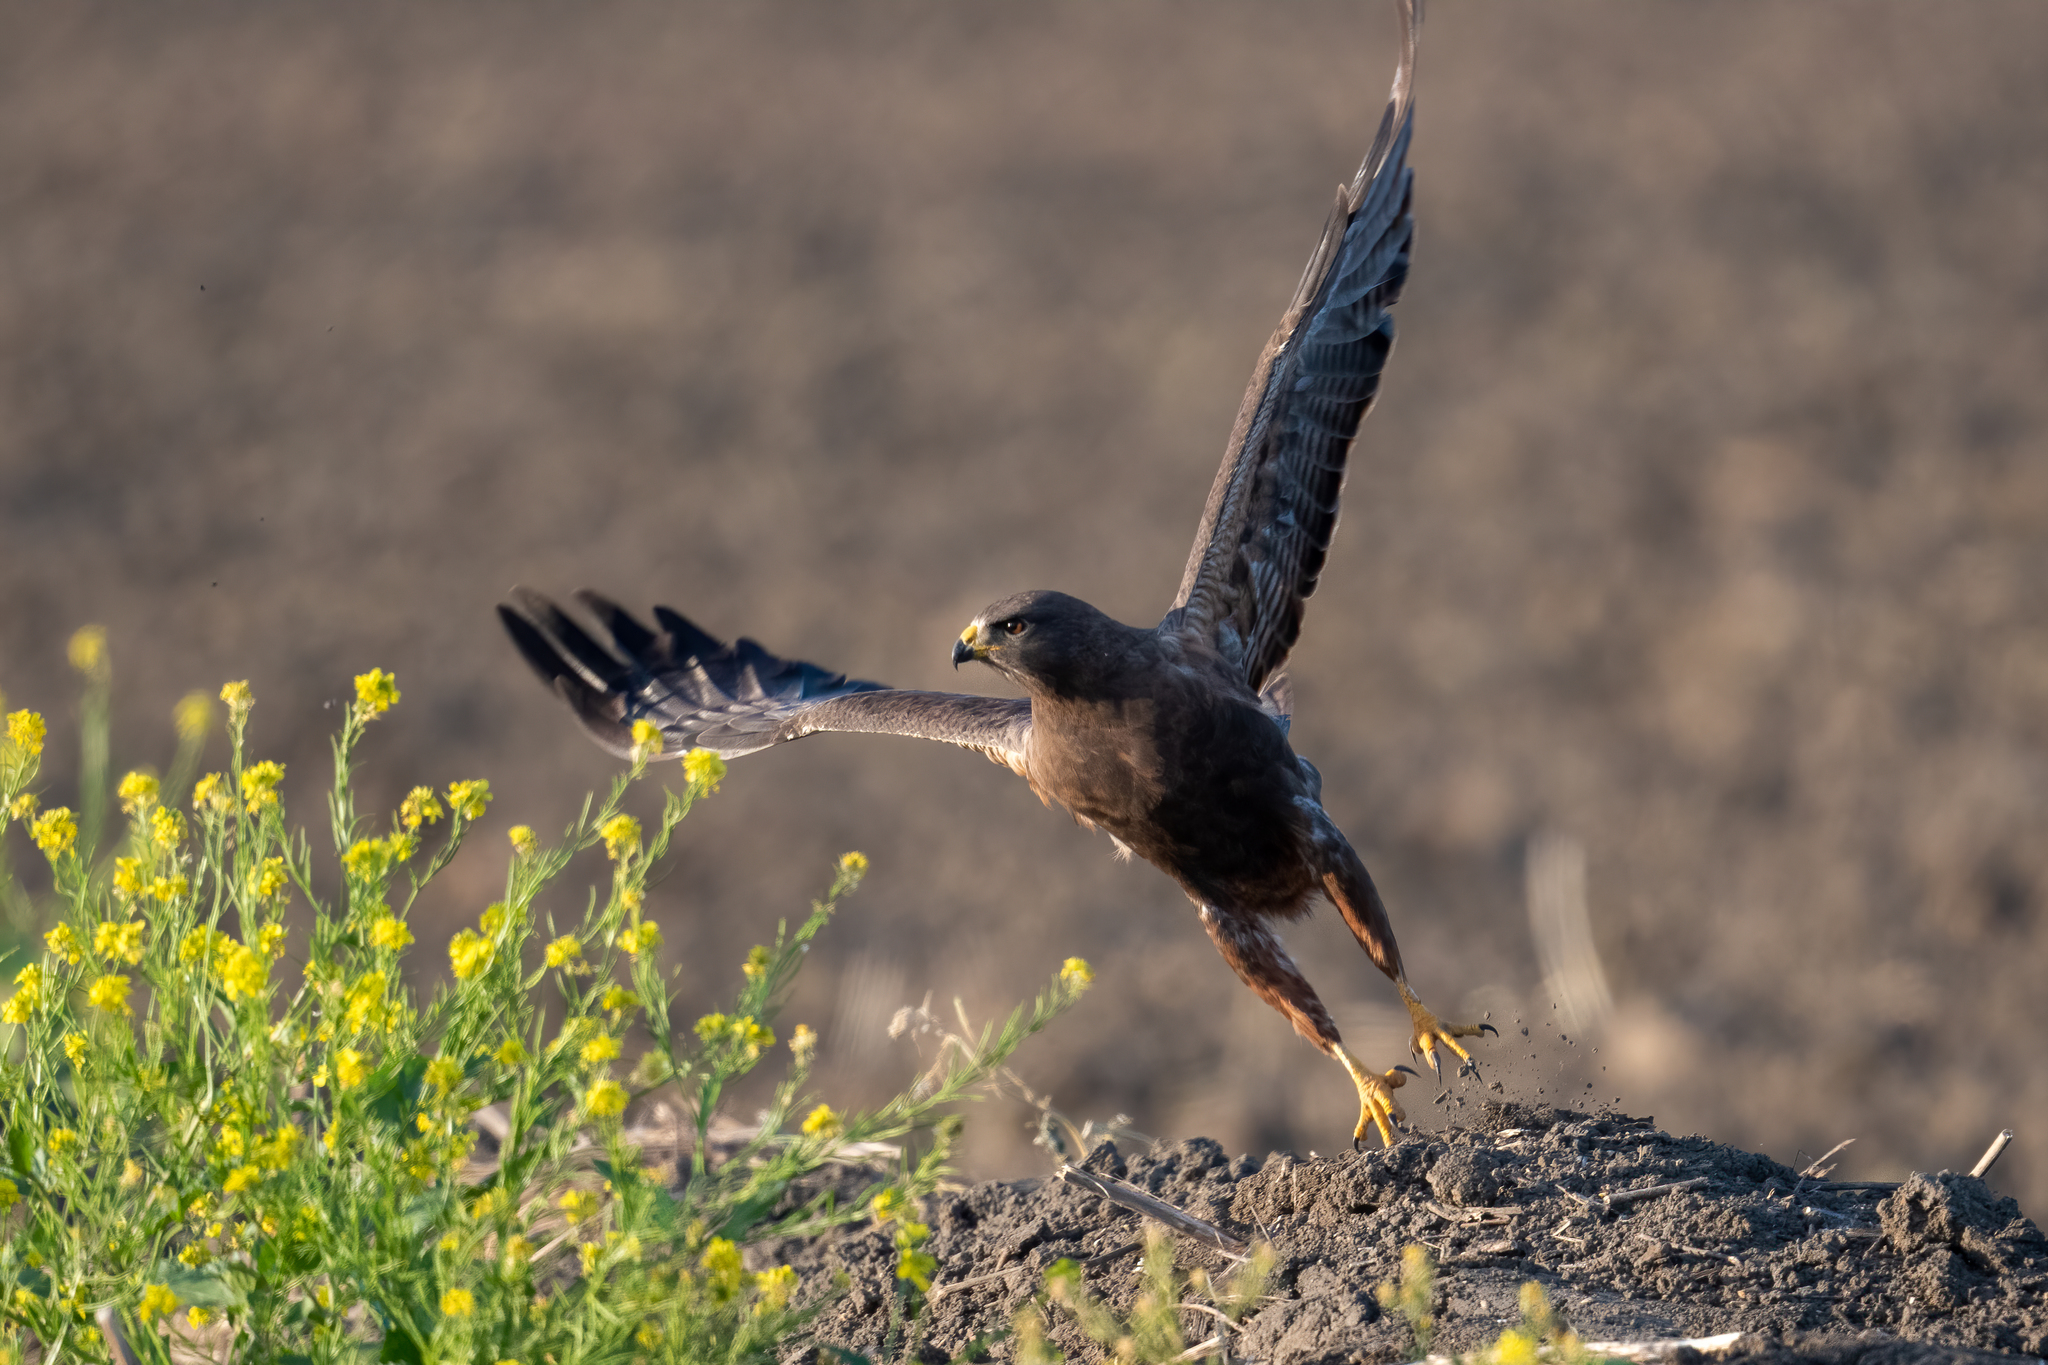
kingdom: Animalia
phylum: Chordata
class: Aves
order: Accipitriformes
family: Accipitridae
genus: Buteo
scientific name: Buteo swainsoni
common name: Swainson's hawk
